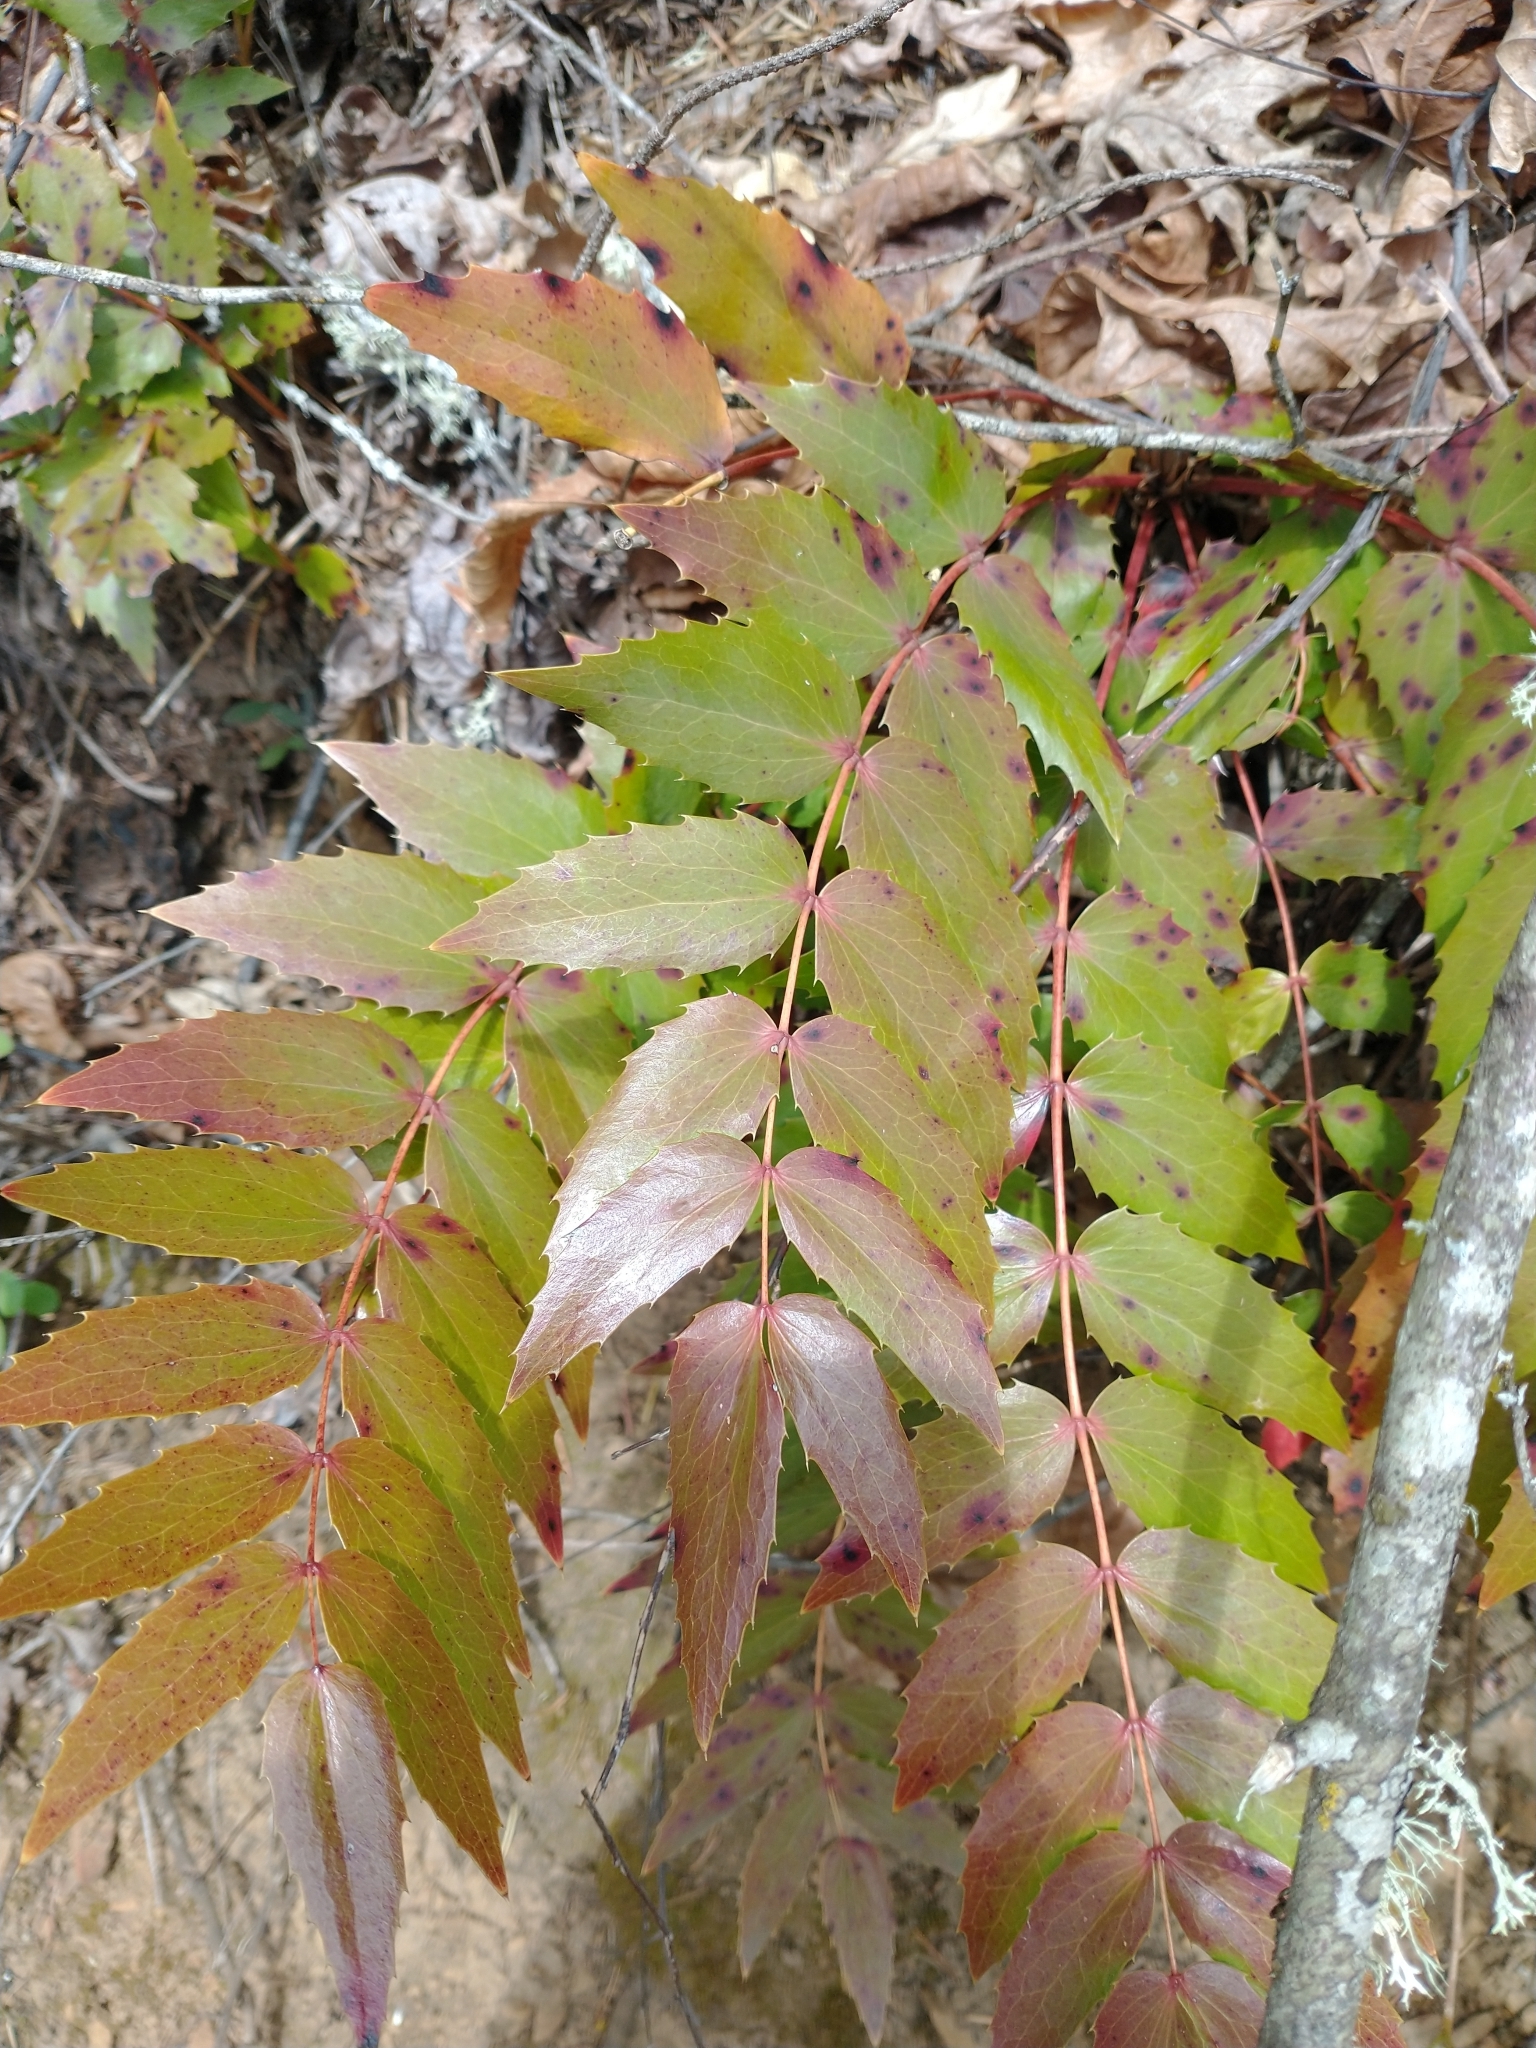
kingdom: Plantae
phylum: Tracheophyta
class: Magnoliopsida
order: Ranunculales
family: Berberidaceae
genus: Mahonia
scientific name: Mahonia nervosa
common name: Cascade oregon-grape
